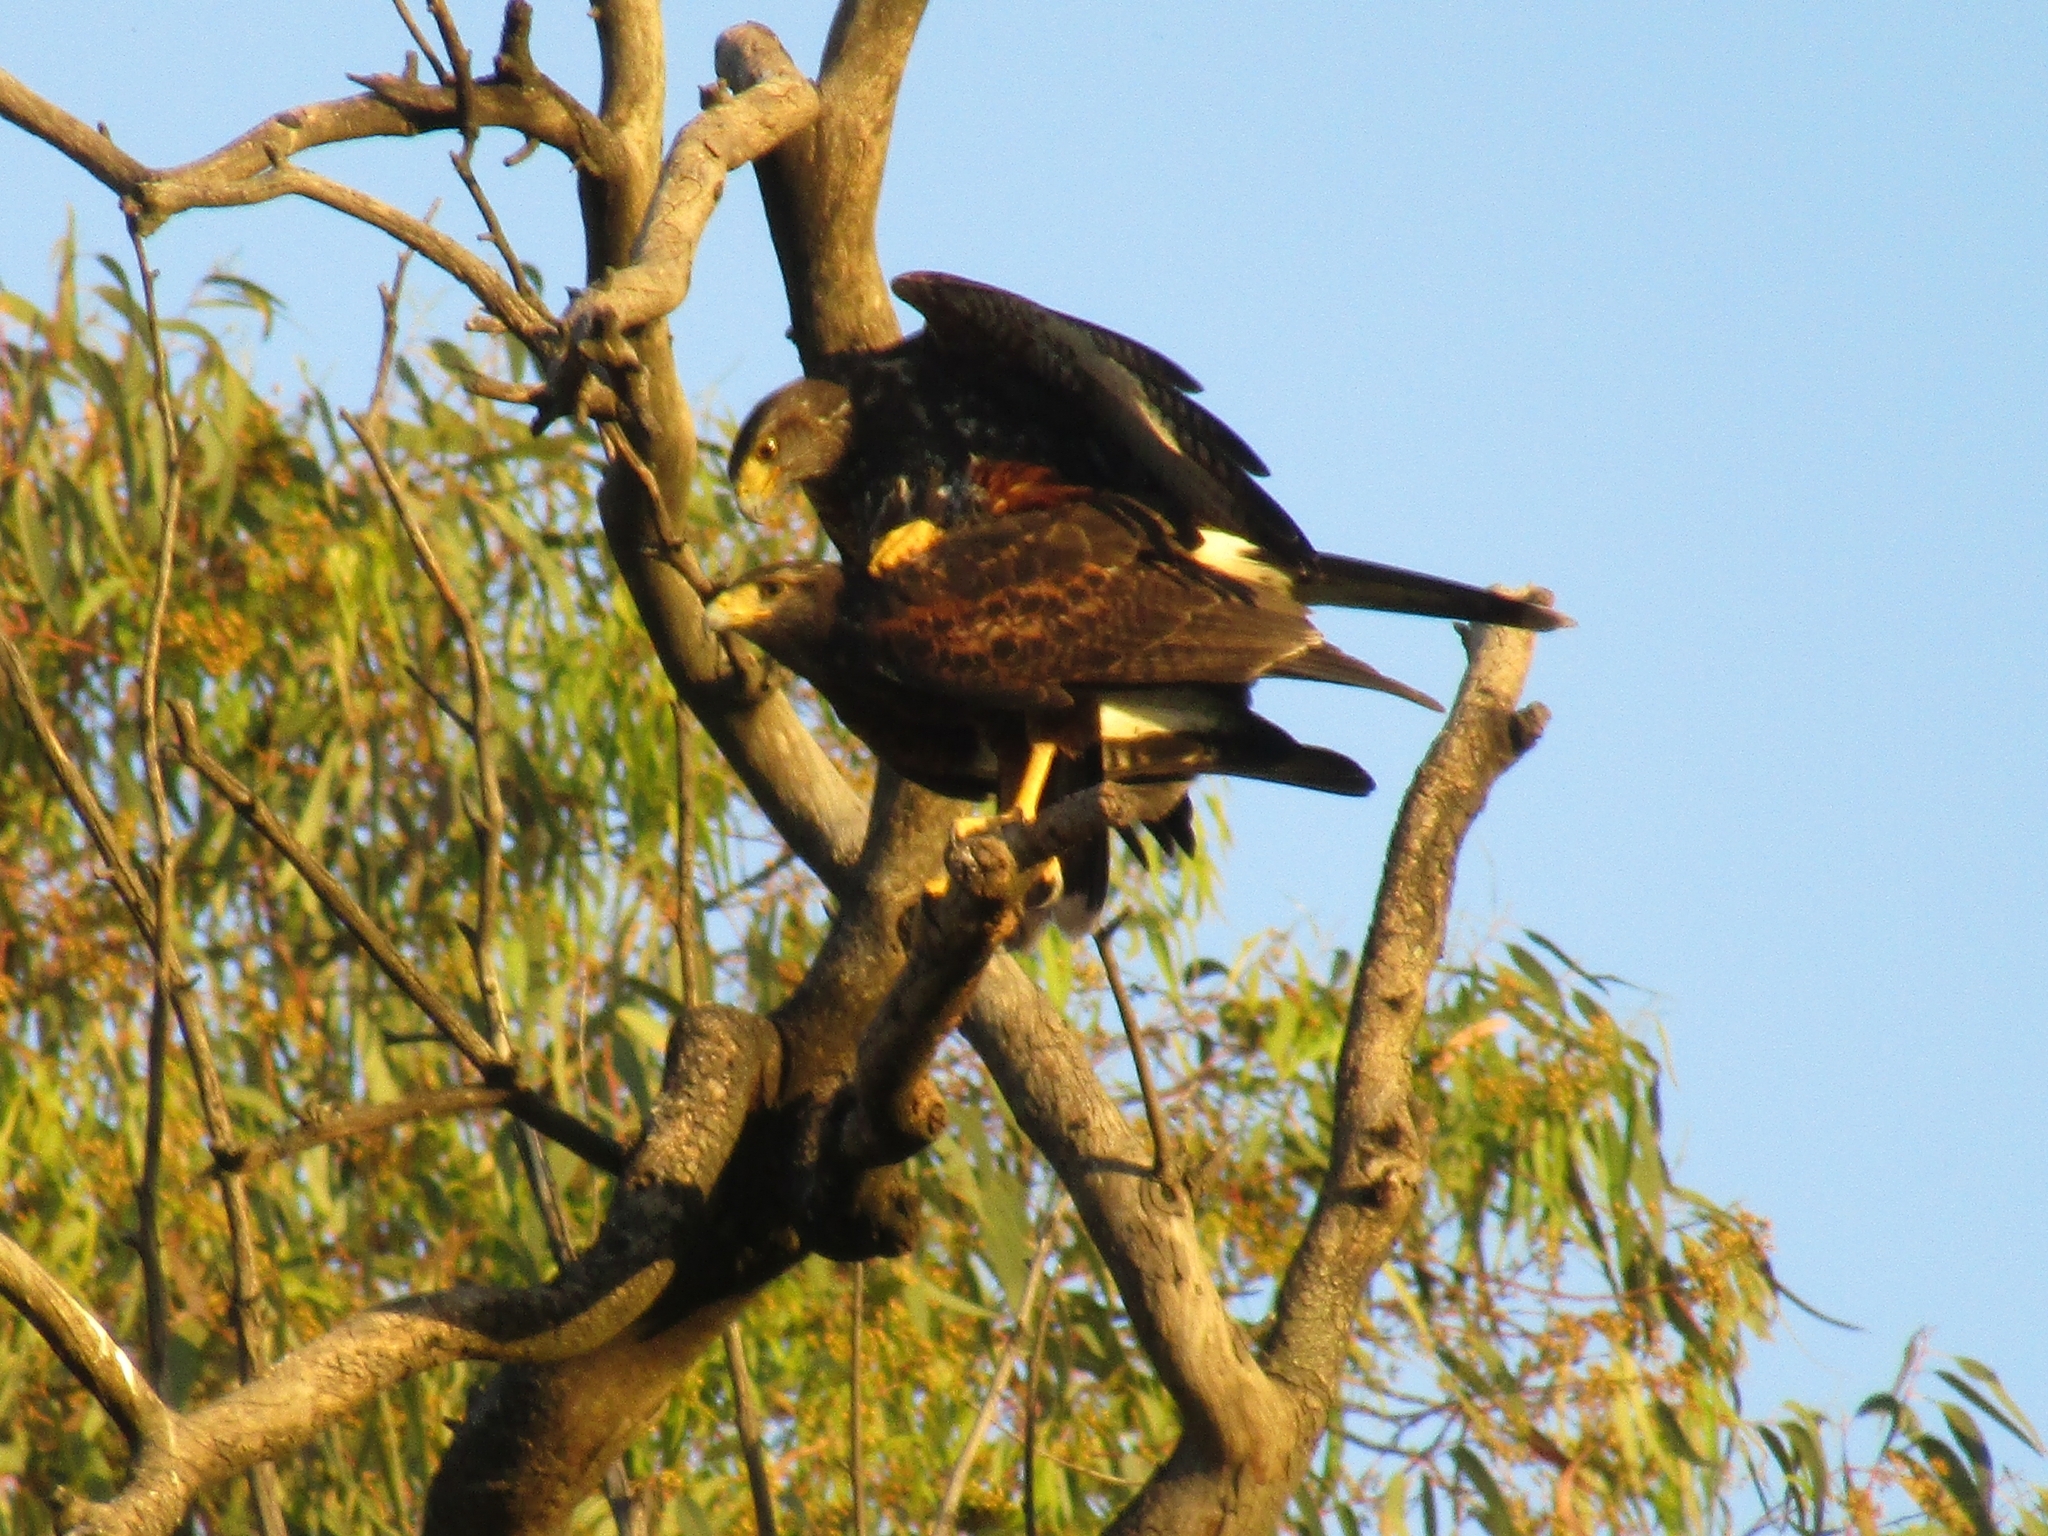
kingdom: Animalia
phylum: Chordata
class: Aves
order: Accipitriformes
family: Accipitridae
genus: Parabuteo
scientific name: Parabuteo unicinctus
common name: Harris's hawk
